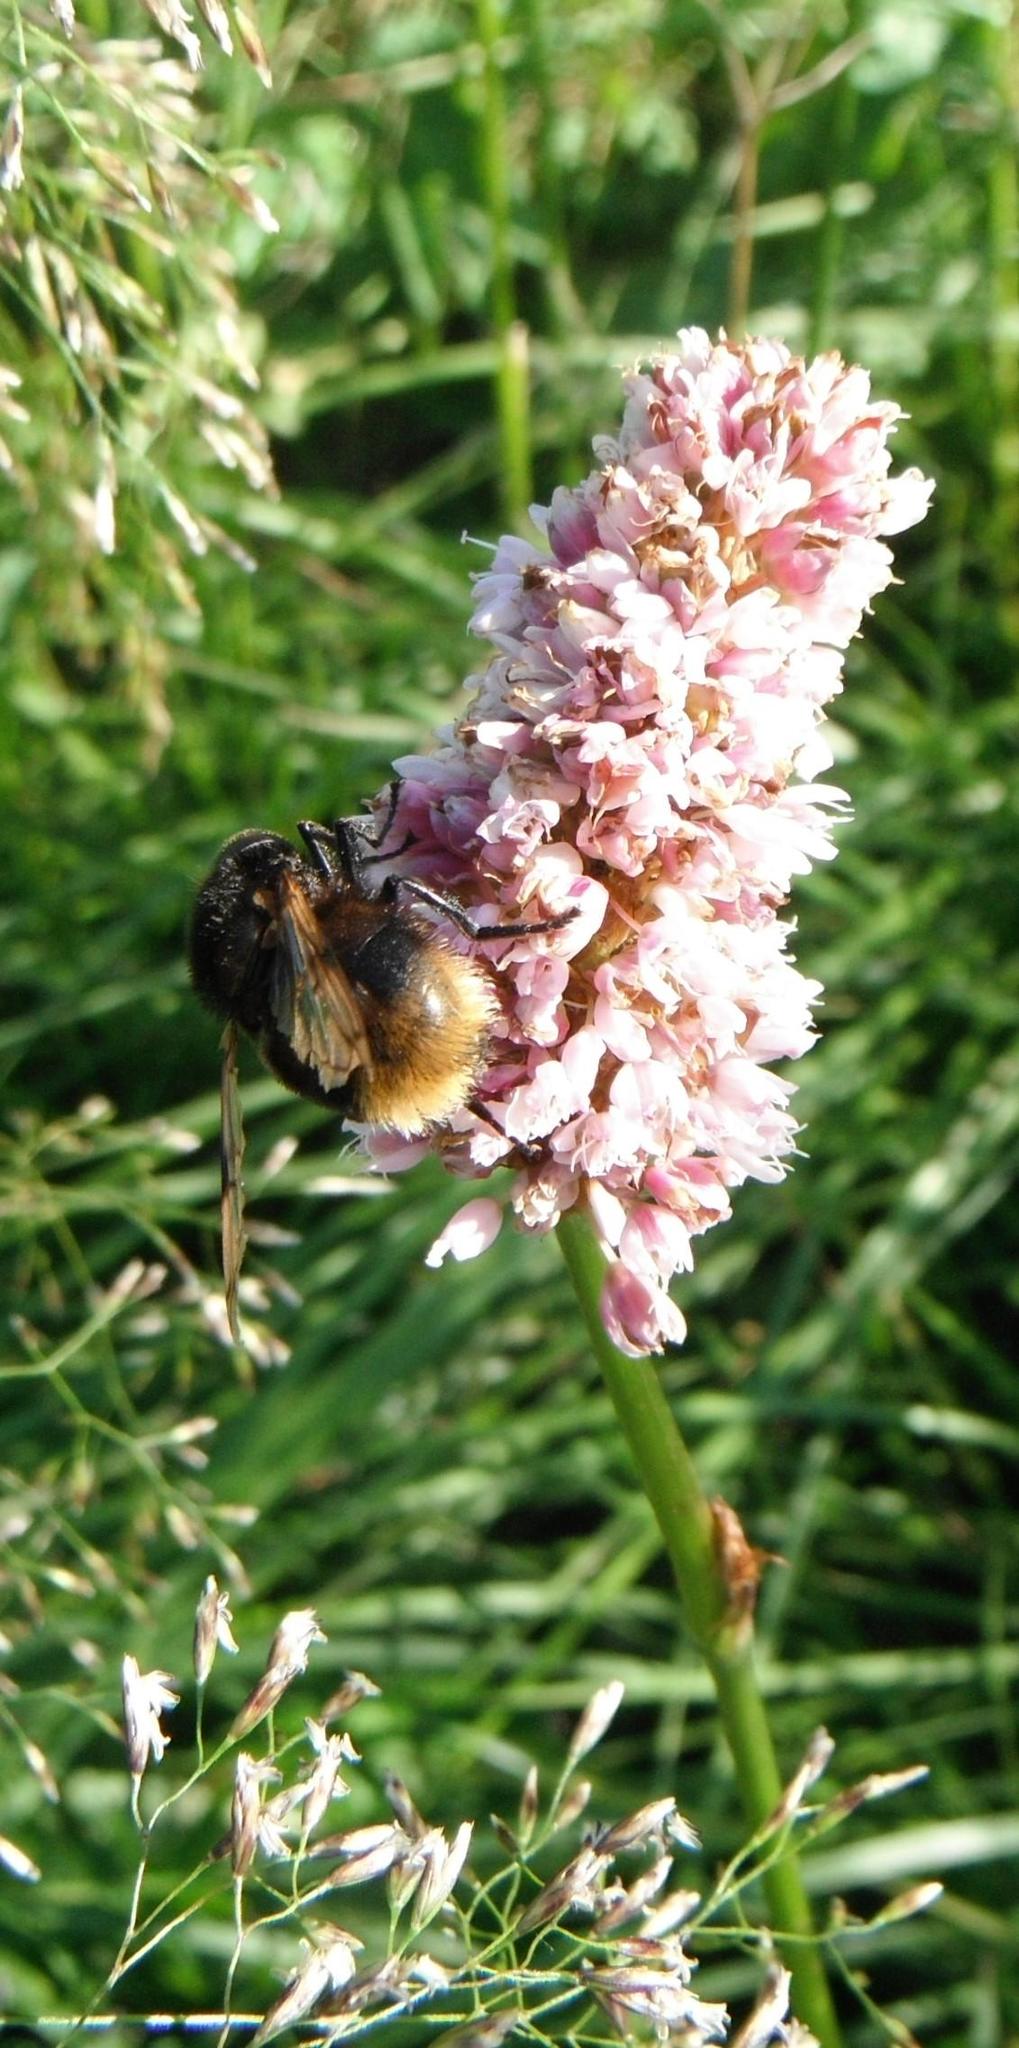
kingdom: Plantae
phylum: Tracheophyta
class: Magnoliopsida
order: Caryophyllales
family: Polygonaceae
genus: Bistorta
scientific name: Bistorta officinalis
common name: Common bistort
